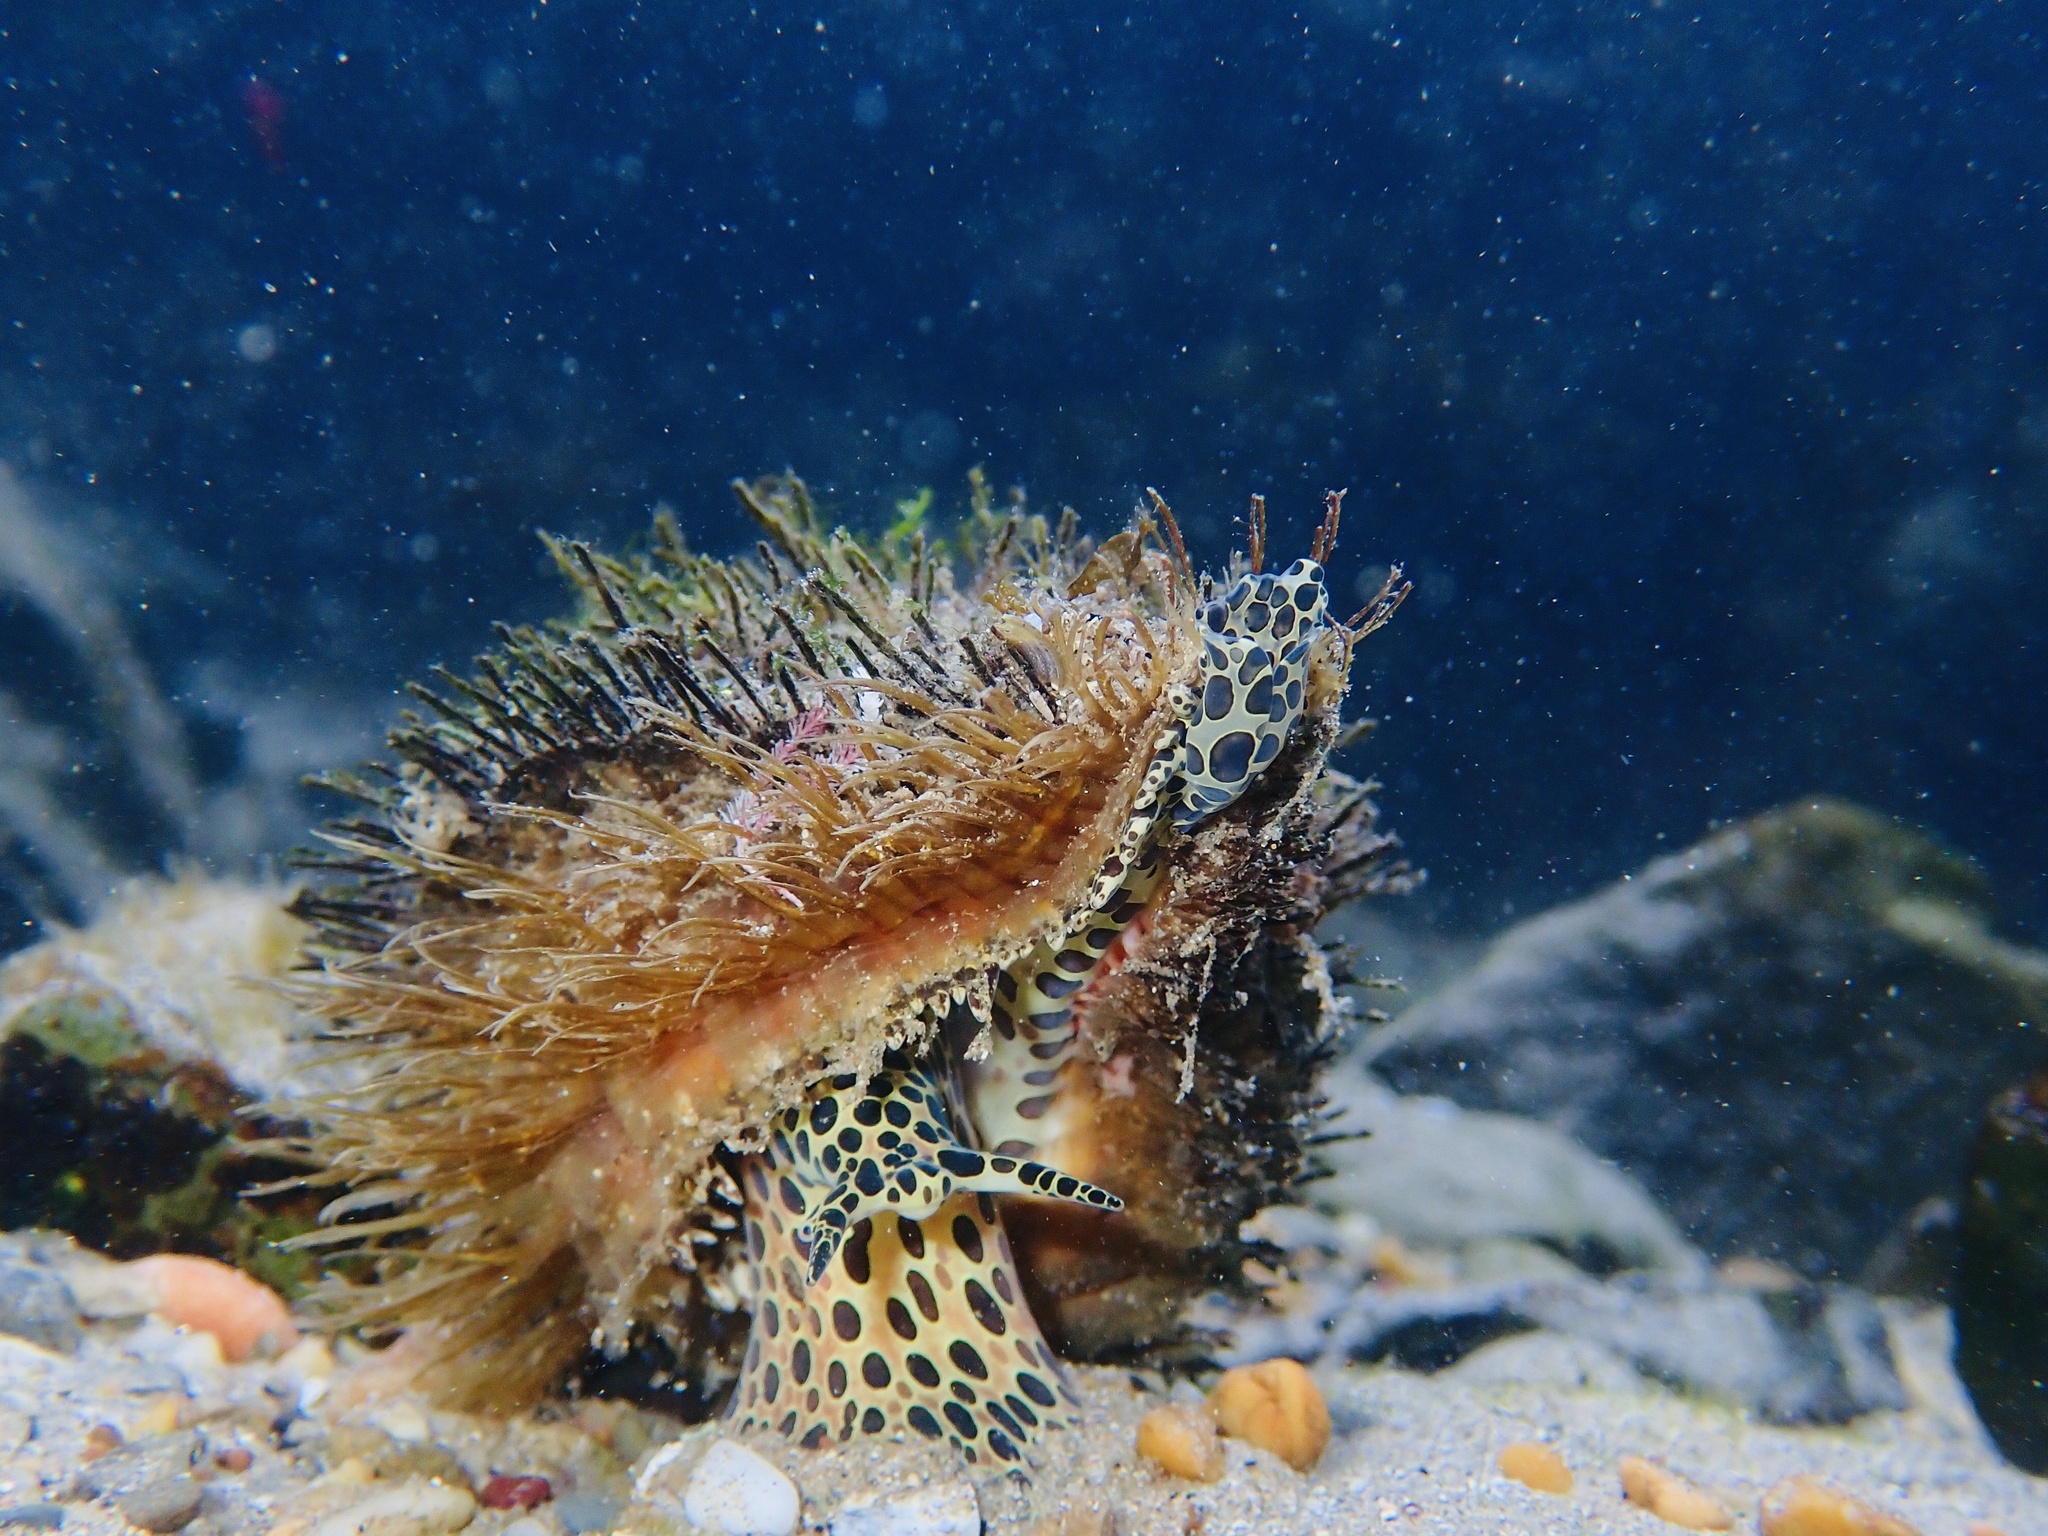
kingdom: Animalia
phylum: Mollusca
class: Gastropoda
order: Littorinimorpha
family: Cymatiidae
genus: Monoplex
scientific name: Monoplex parthenopeus
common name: Giant triton
